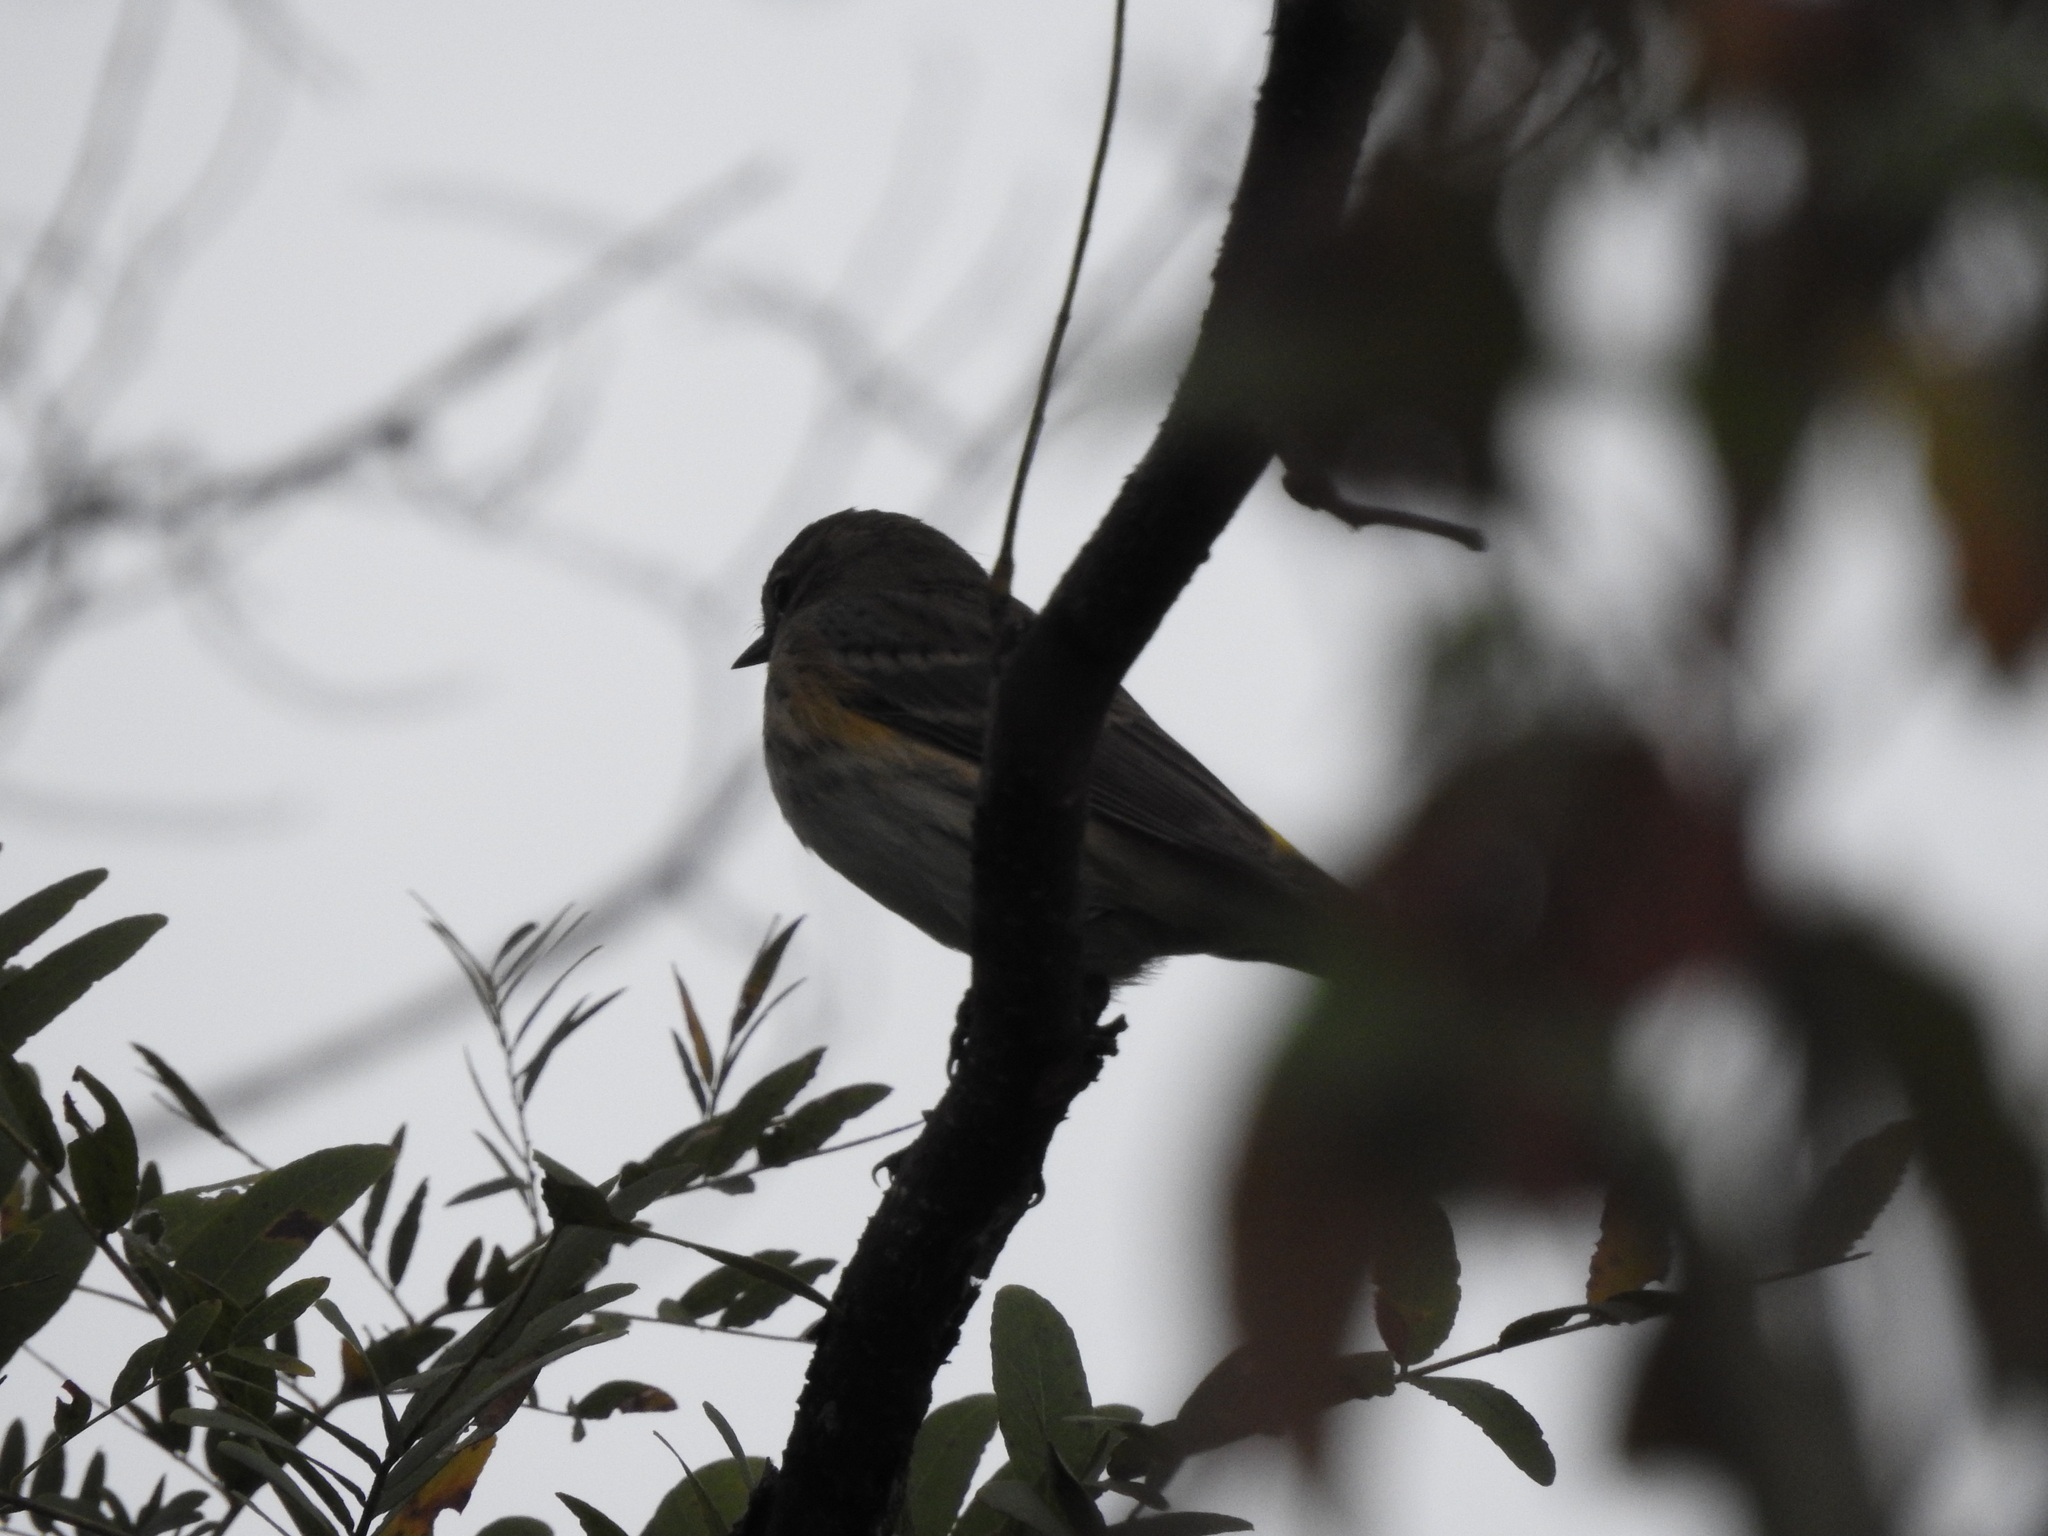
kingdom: Animalia
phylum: Chordata
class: Aves
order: Passeriformes
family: Parulidae
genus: Setophaga
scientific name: Setophaga coronata
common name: Myrtle warbler
